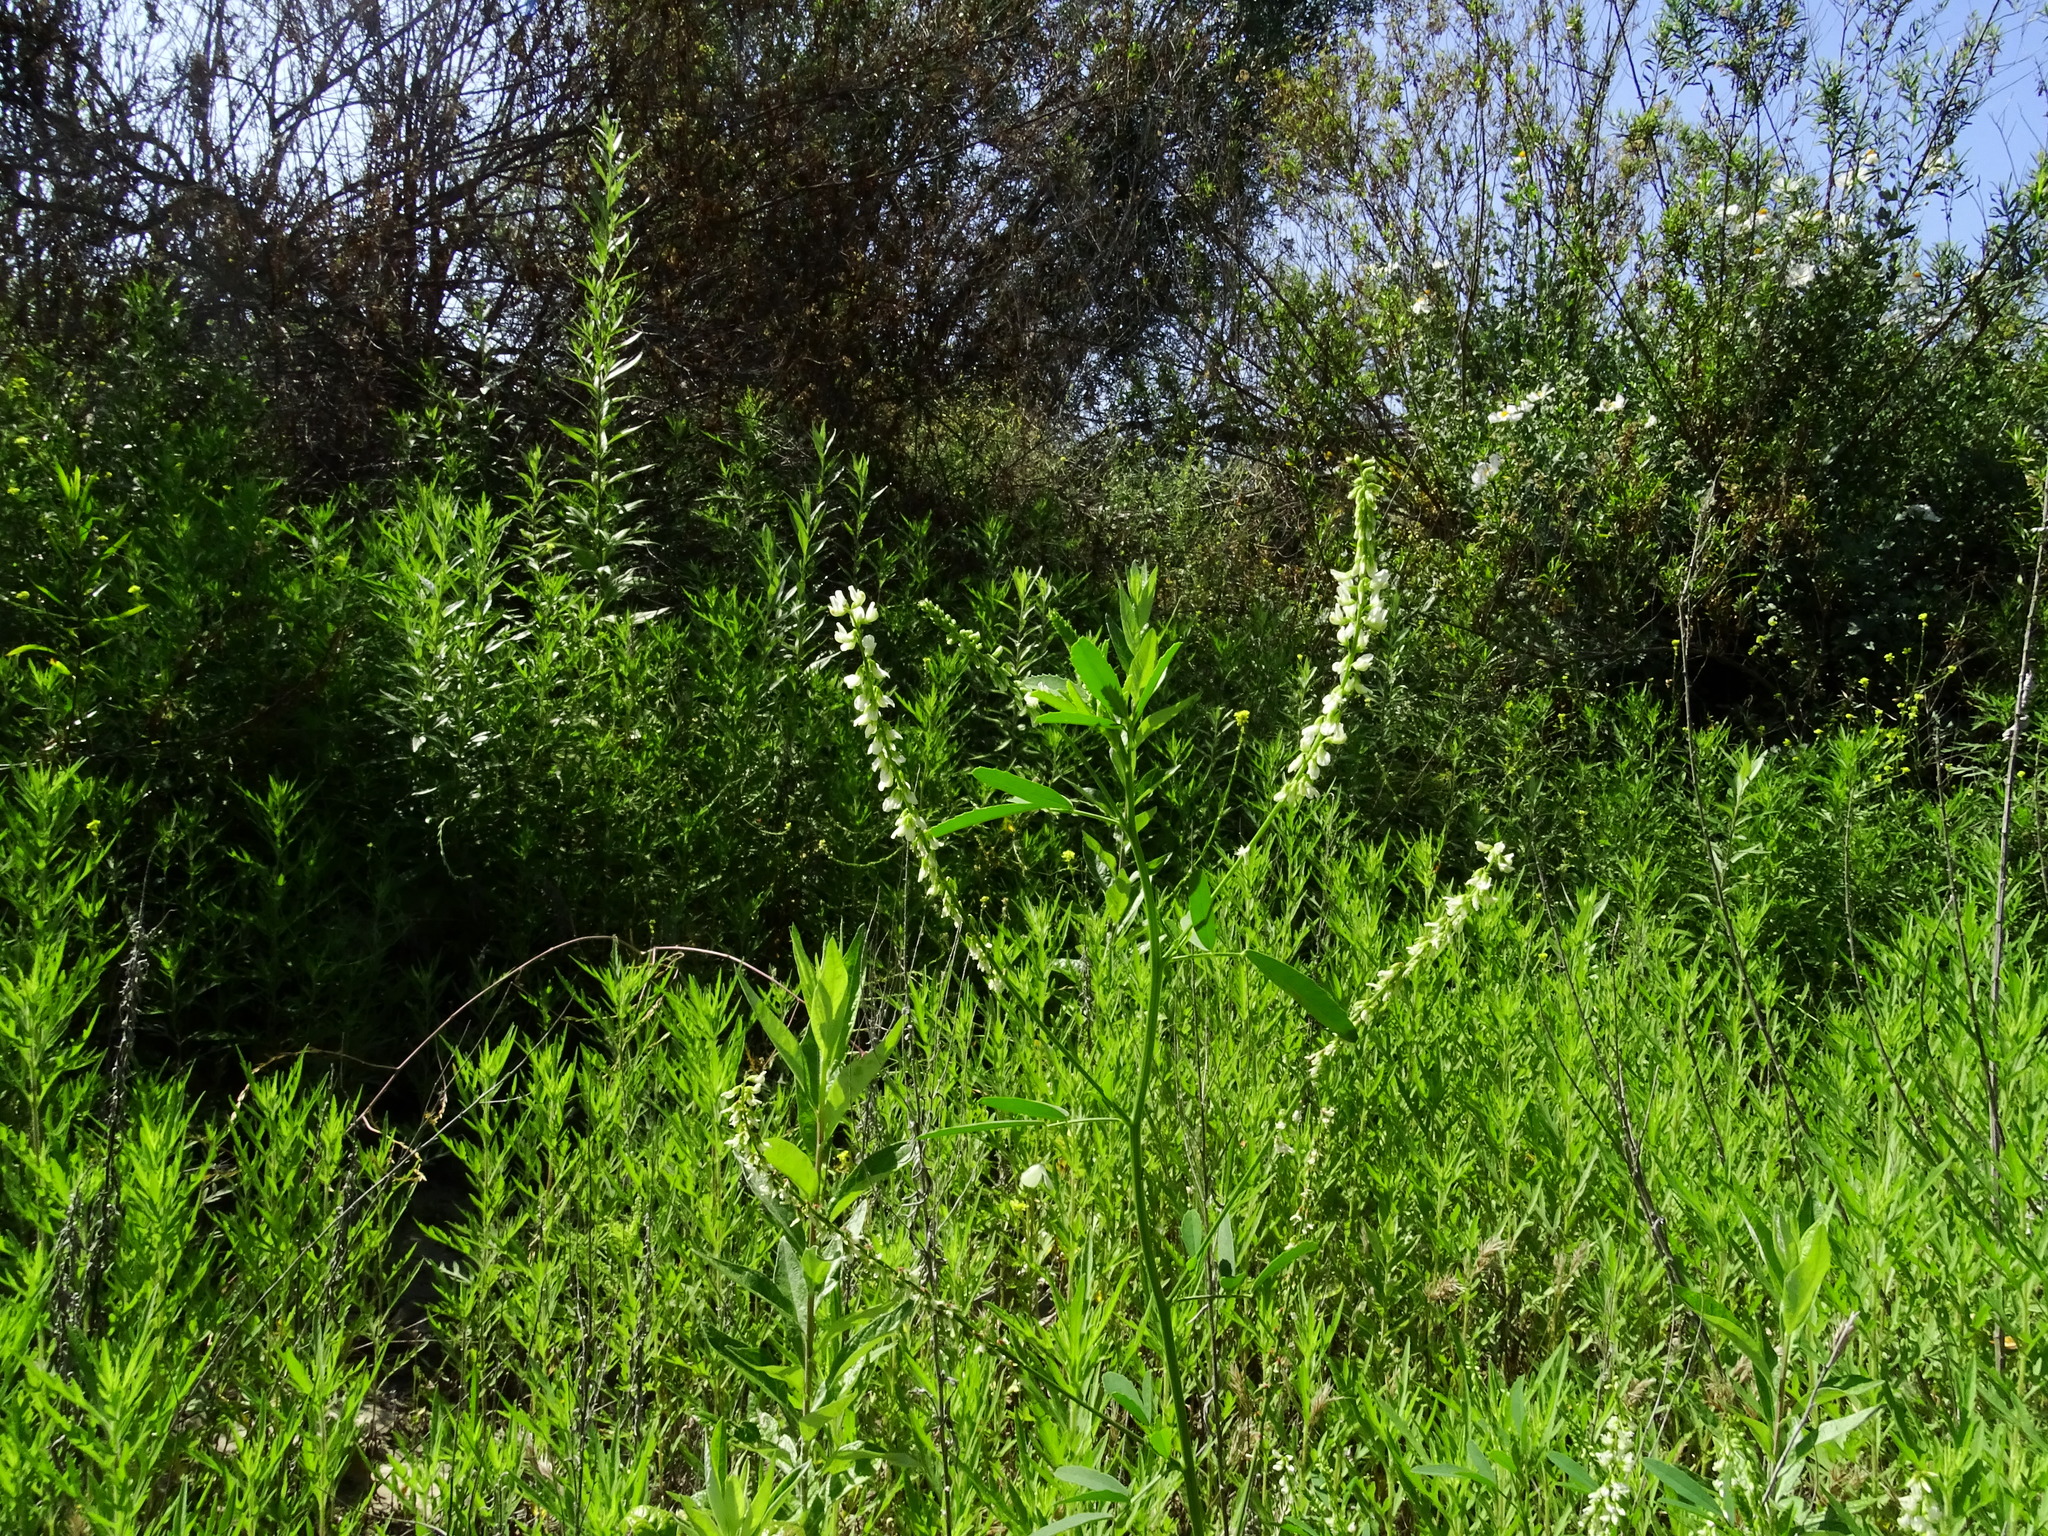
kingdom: Plantae
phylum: Tracheophyta
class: Magnoliopsida
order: Fabales
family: Fabaceae
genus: Melilotus
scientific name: Melilotus albus
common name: White melilot
